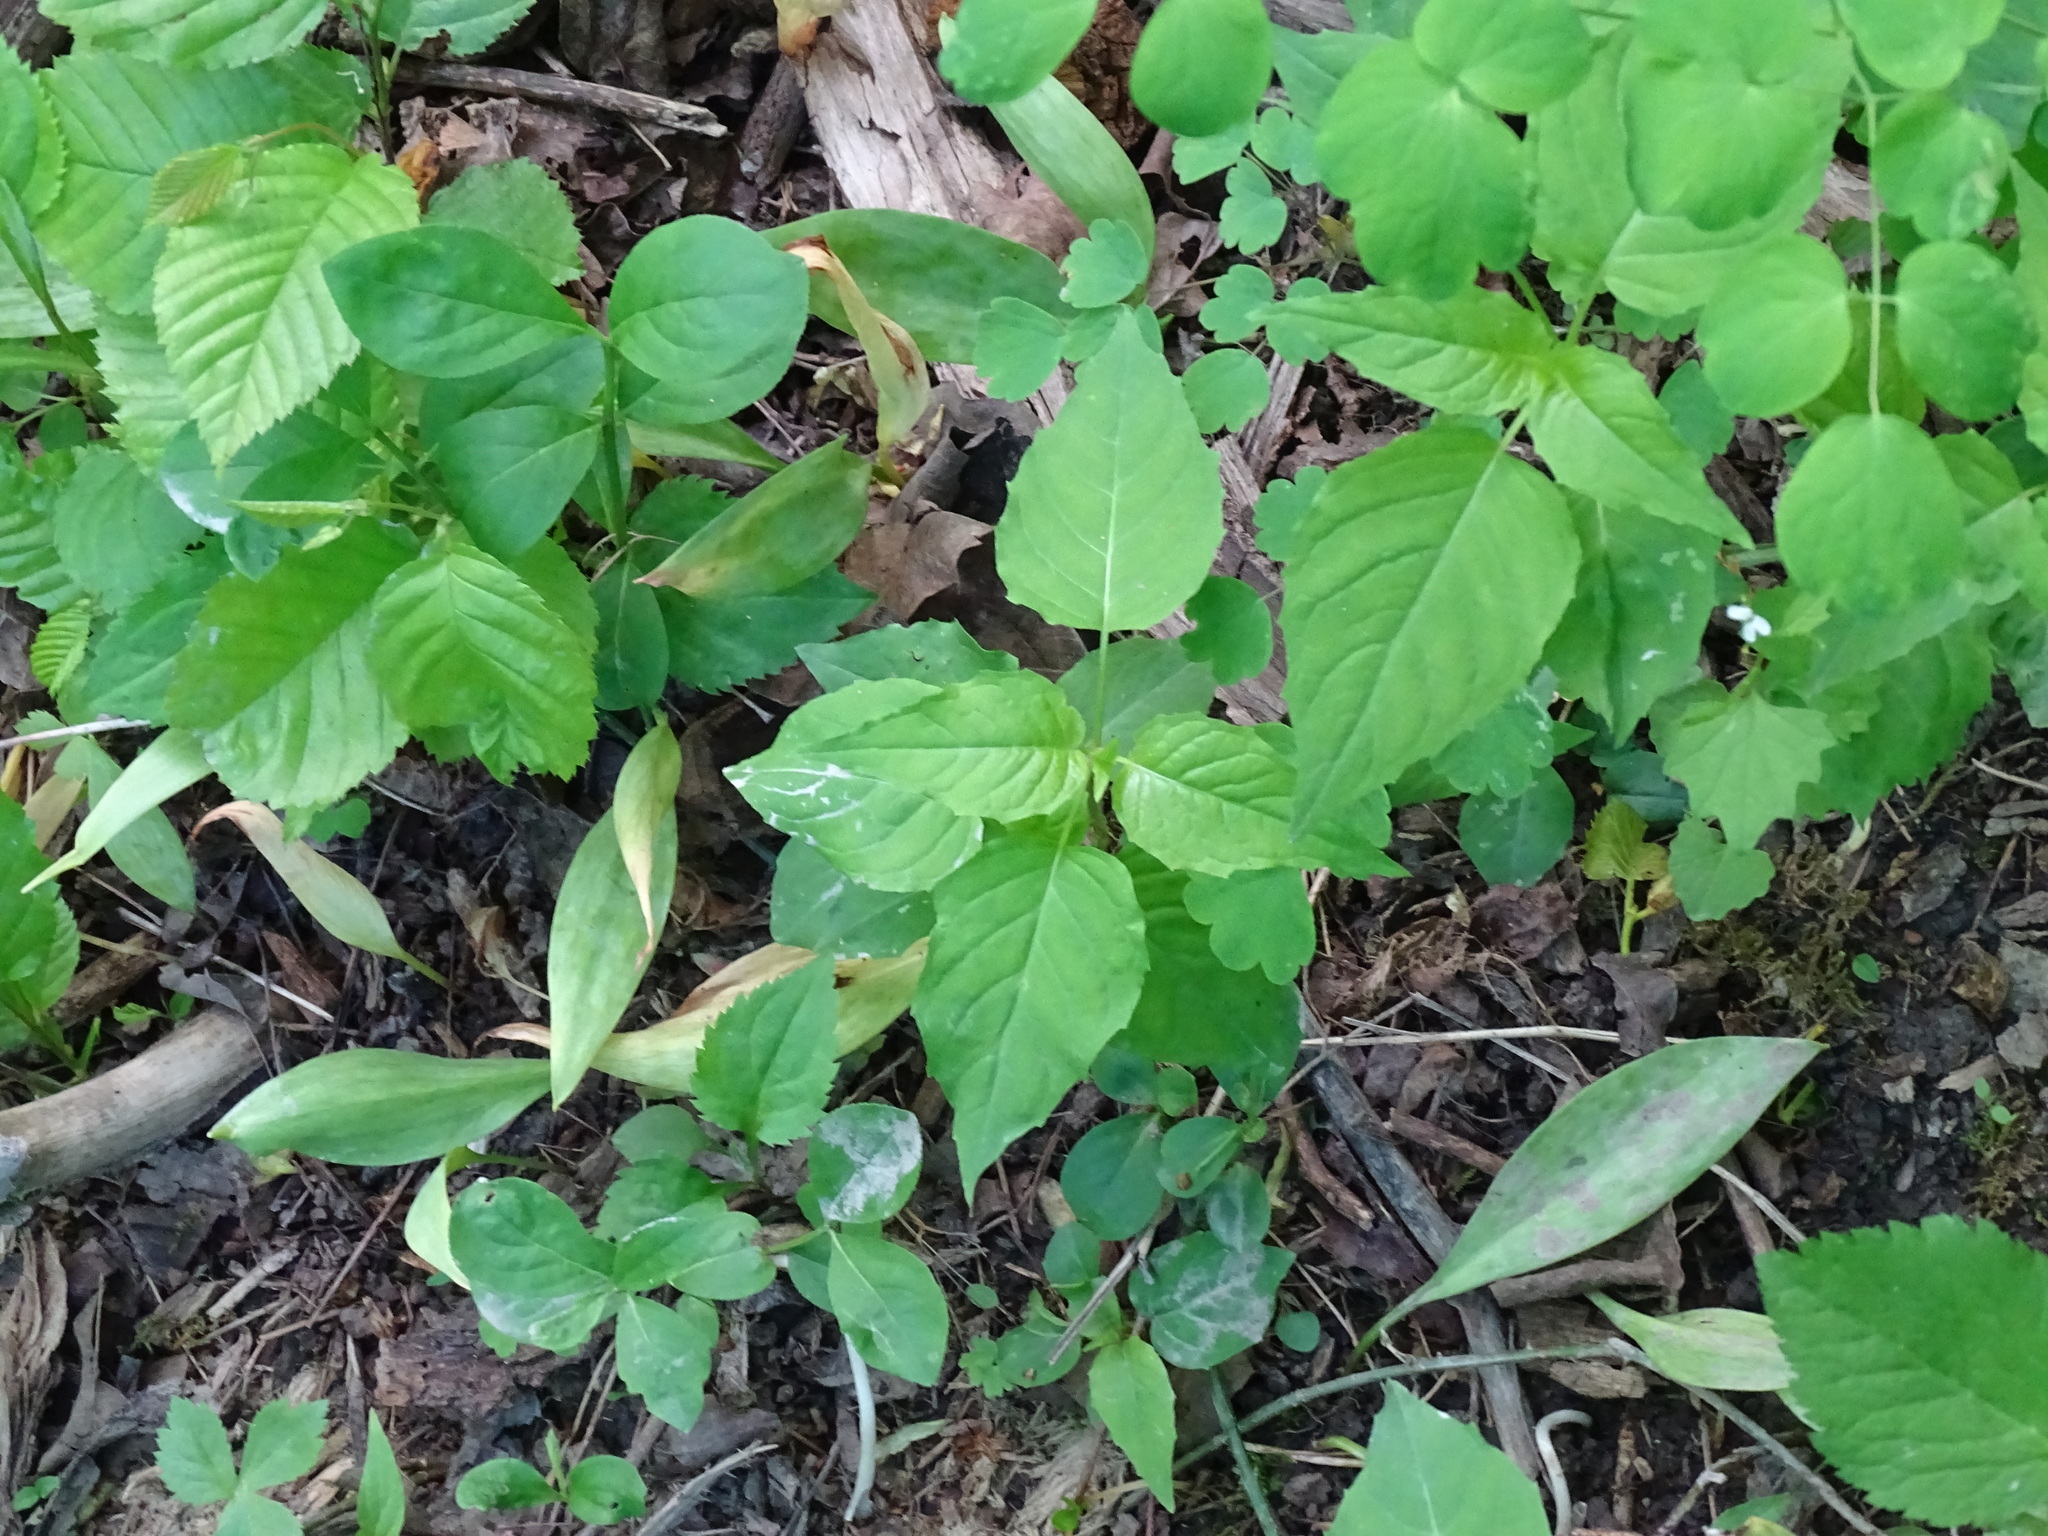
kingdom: Plantae
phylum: Tracheophyta
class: Magnoliopsida
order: Myrtales
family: Onagraceae
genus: Circaea
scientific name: Circaea canadensis
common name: Broad-leaved enchanter's nightshade
